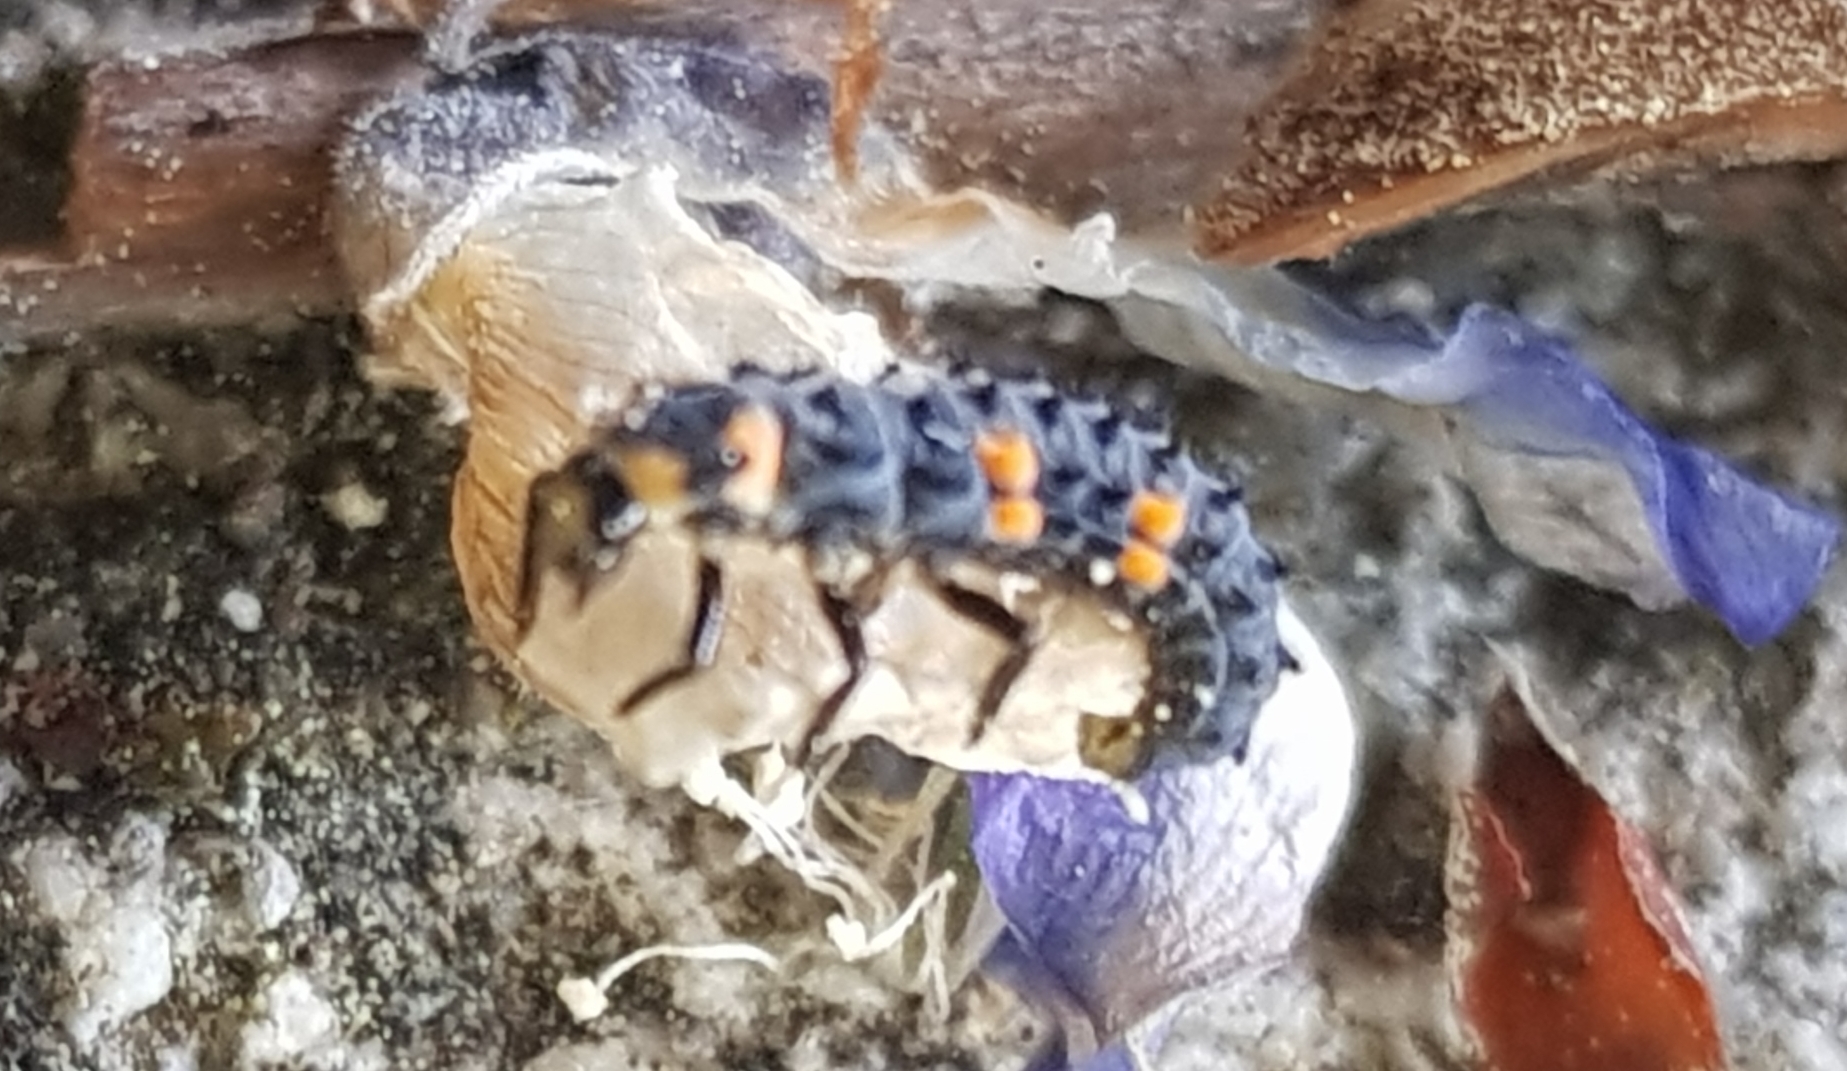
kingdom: Animalia
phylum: Arthropoda
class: Insecta
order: Coleoptera
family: Coccinellidae
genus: Coccinella
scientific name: Coccinella septempunctata
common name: Sevenspotted lady beetle
